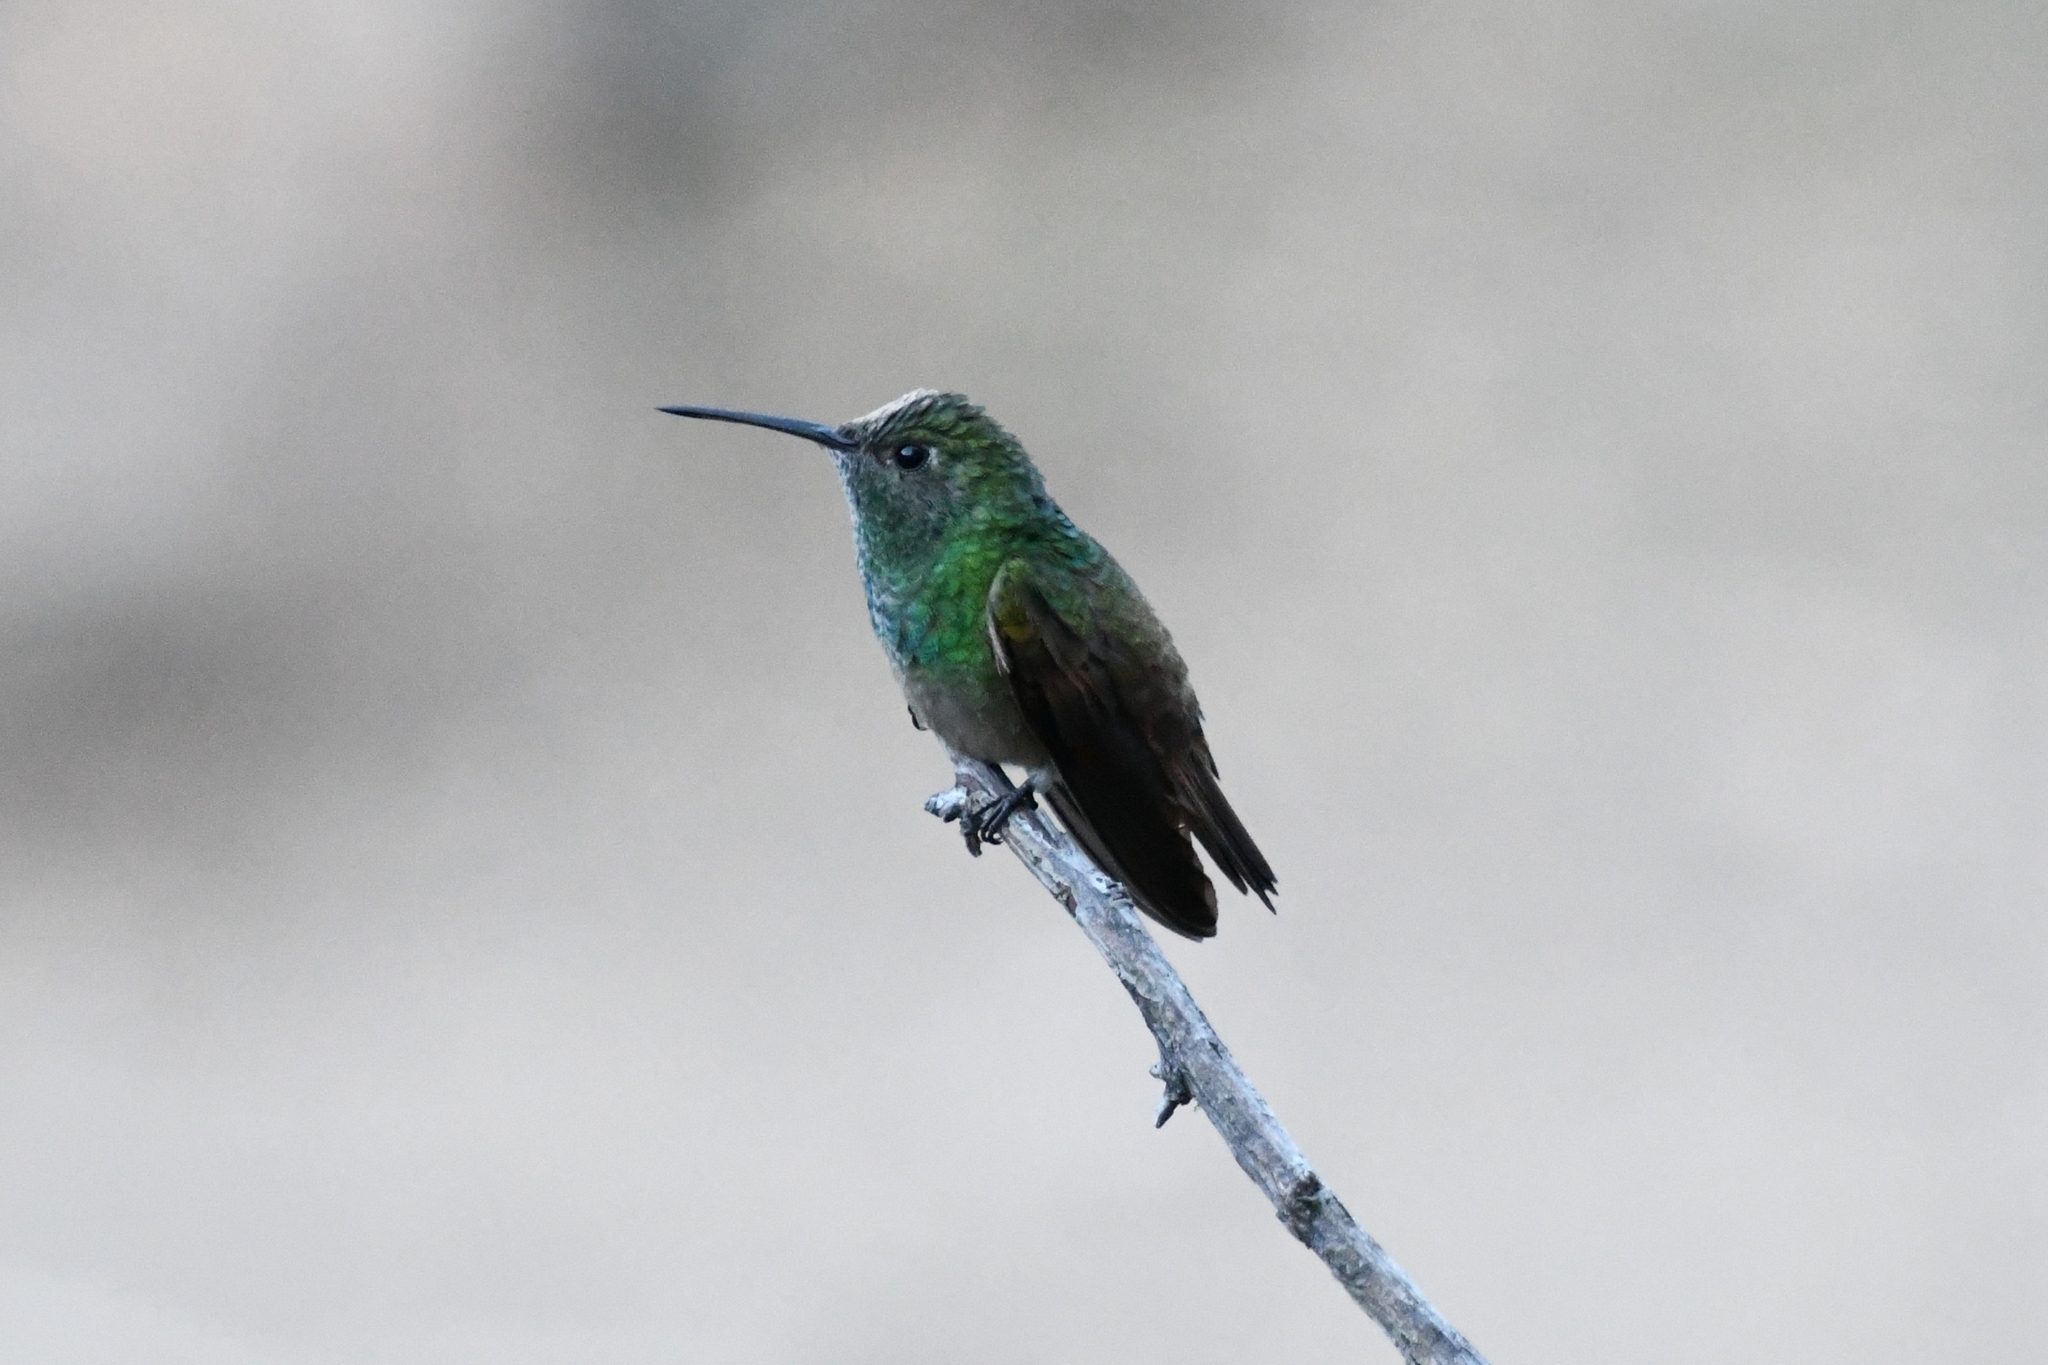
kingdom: Animalia
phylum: Chordata
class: Aves
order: Apodiformes
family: Trochilidae
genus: Saucerottia
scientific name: Saucerottia beryllina
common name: Berylline hummingbird
